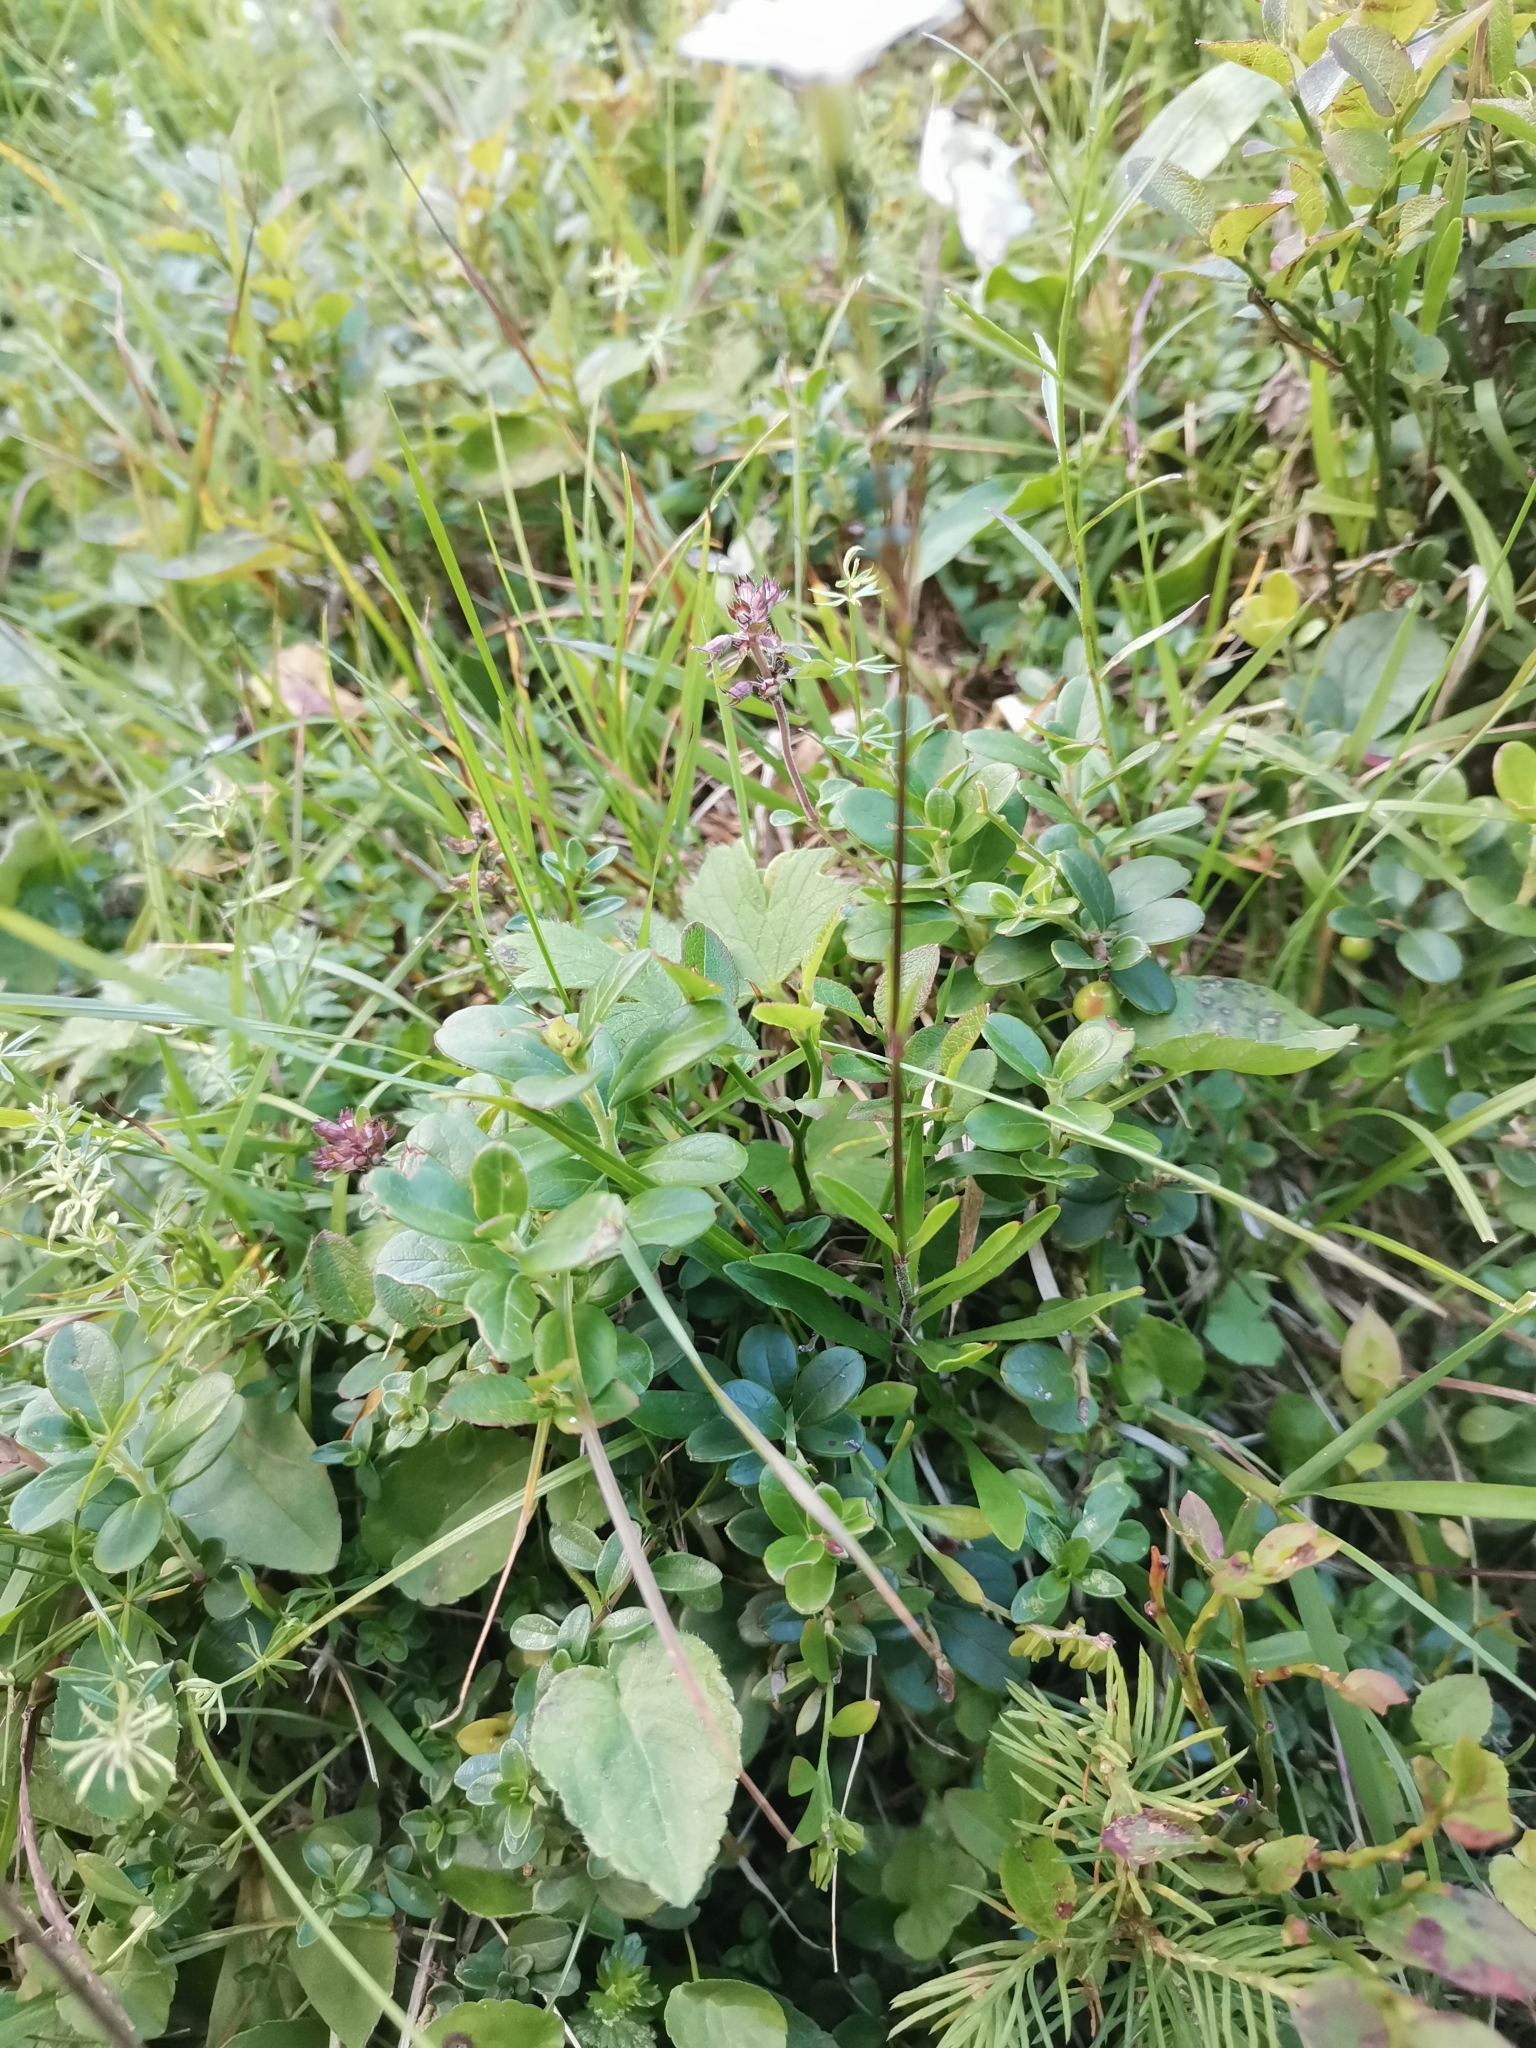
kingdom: Plantae
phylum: Tracheophyta
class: Magnoliopsida
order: Caryophyllales
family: Caryophyllaceae
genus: Heliosperma
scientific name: Heliosperma alpestre
